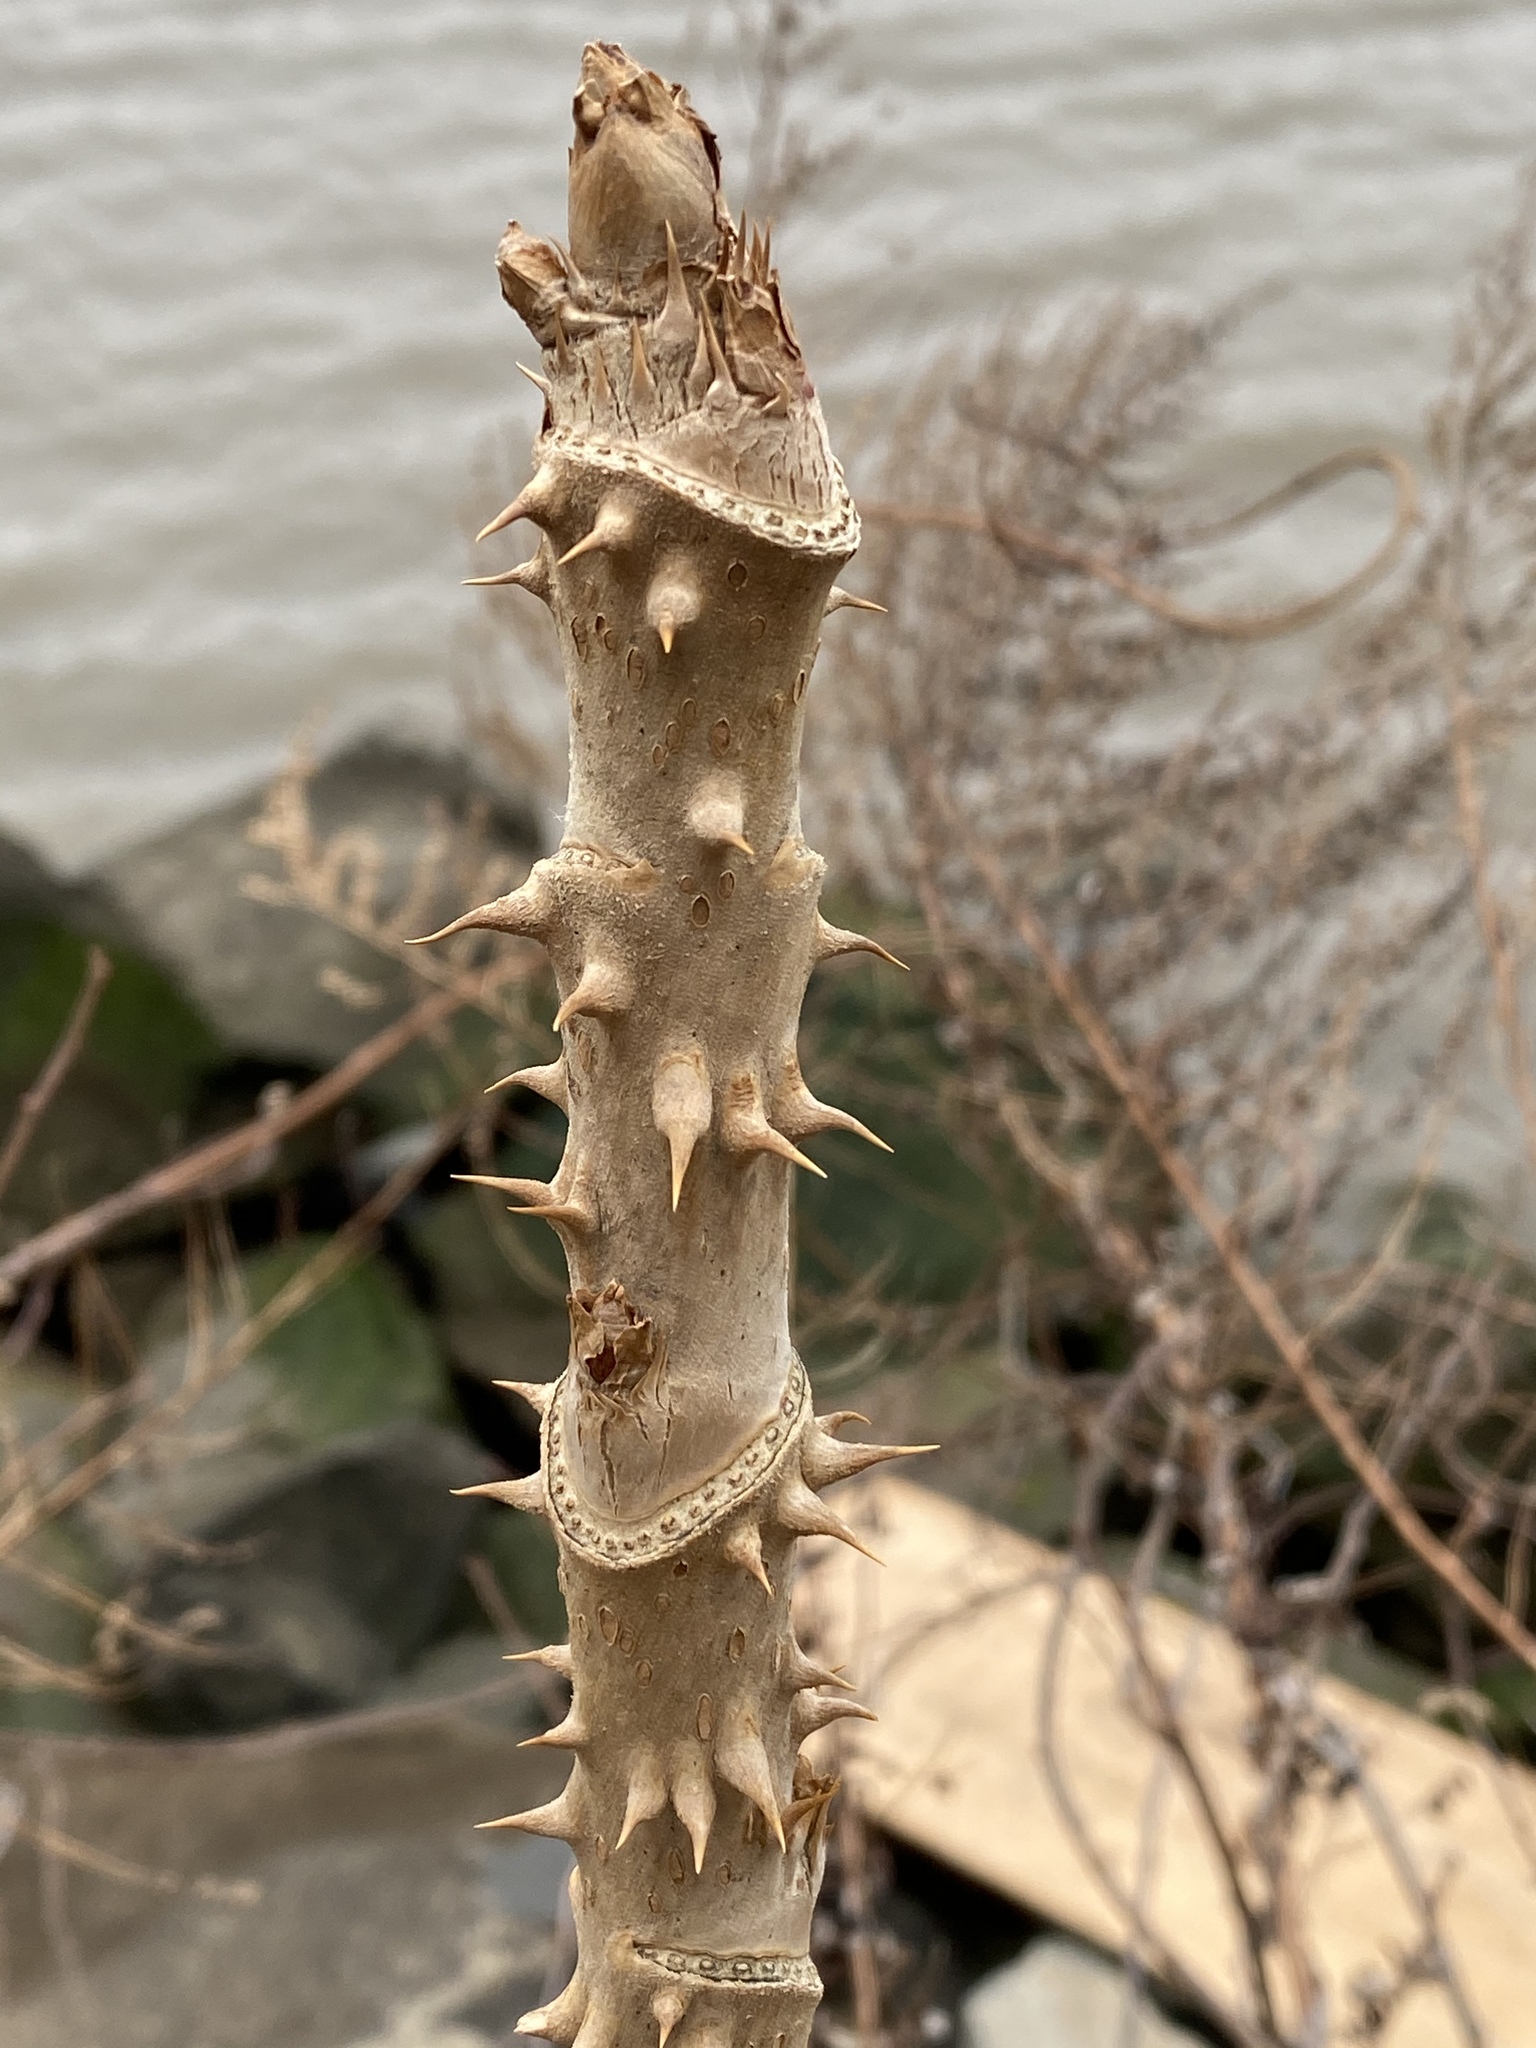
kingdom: Plantae
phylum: Tracheophyta
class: Magnoliopsida
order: Apiales
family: Araliaceae
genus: Aralia
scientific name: Aralia elata
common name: Japanese angelica-tree
